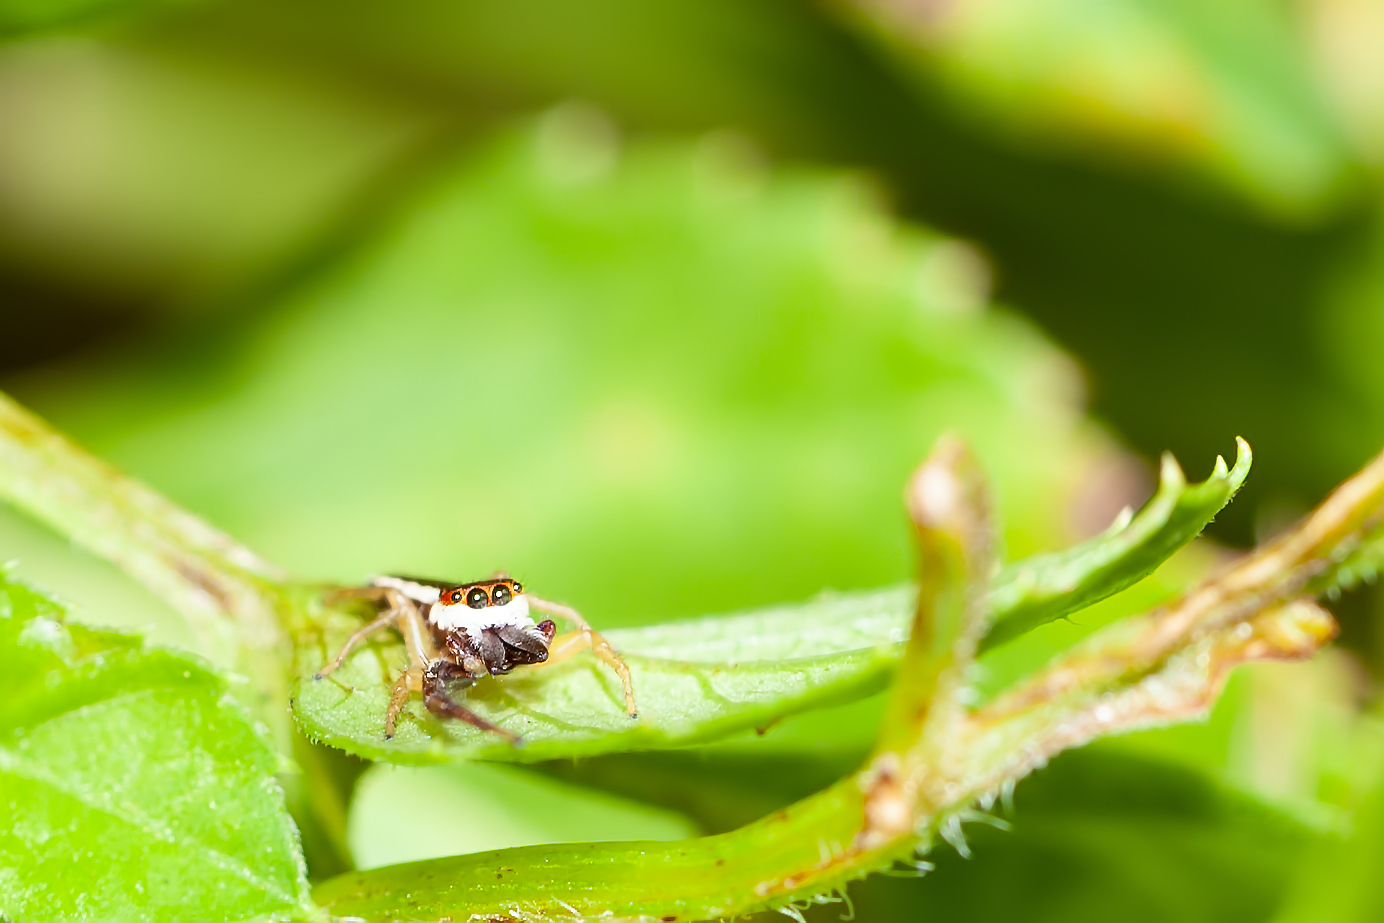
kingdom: Animalia
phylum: Arthropoda
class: Arachnida
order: Araneae
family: Salticidae
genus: Hentzia
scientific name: Hentzia palmarum
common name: Common hentz jumping spider
